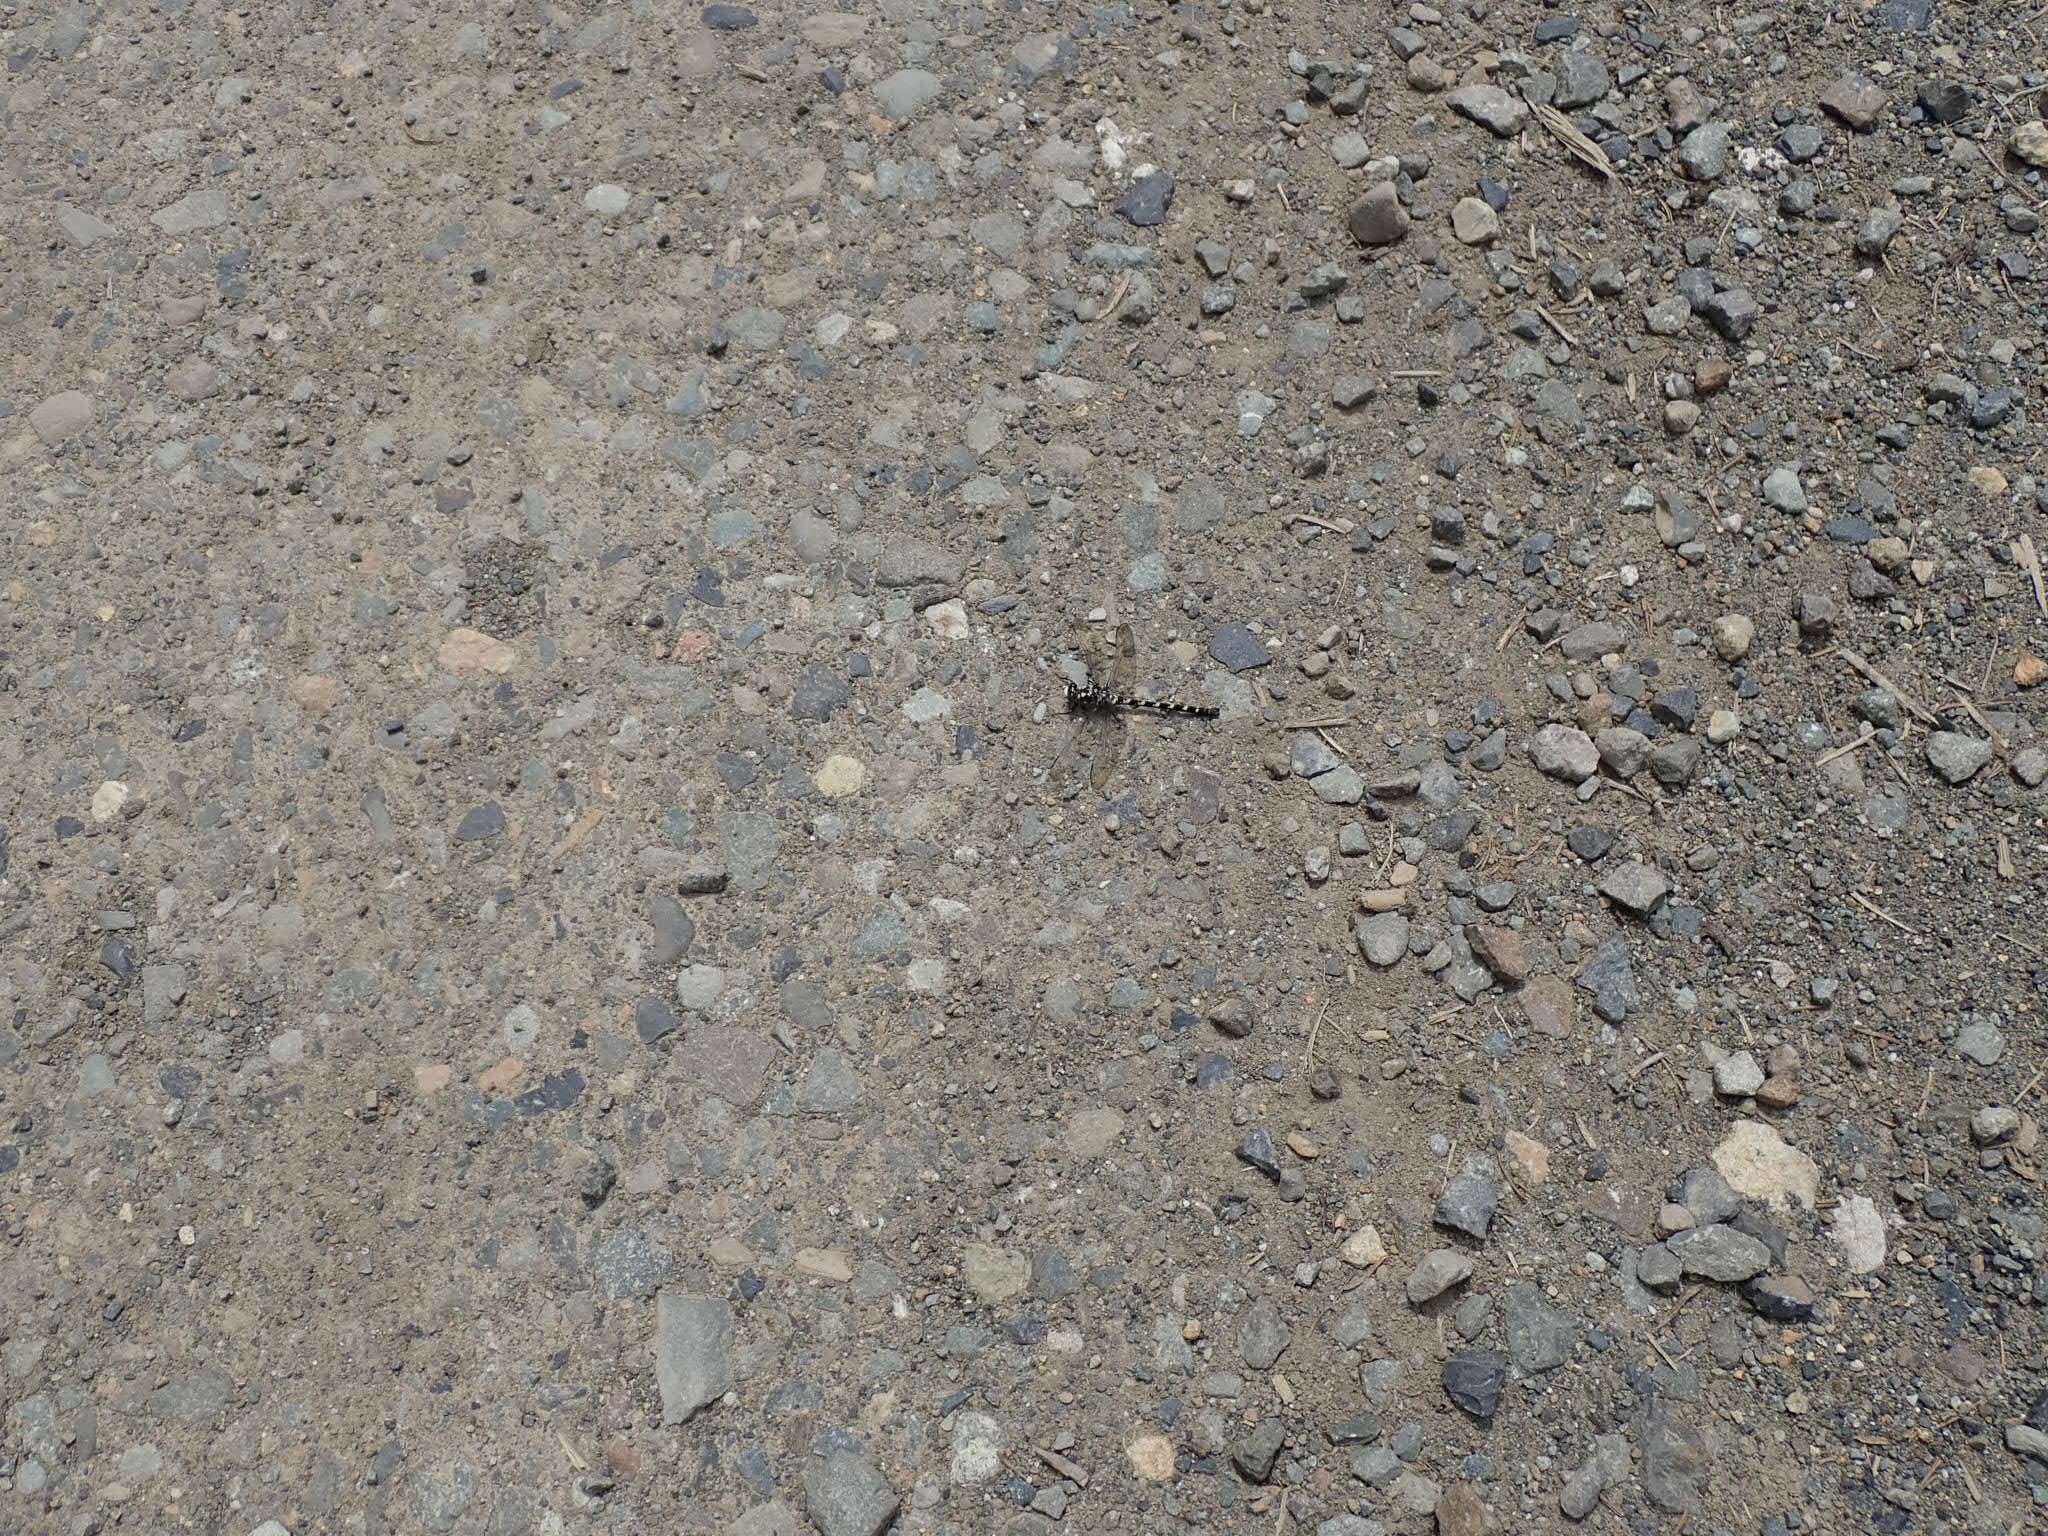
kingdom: Animalia
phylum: Arthropoda
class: Insecta
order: Odonata
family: Petaluridae
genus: Tanypteryx
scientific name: Tanypteryx hageni
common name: Black petaltail
